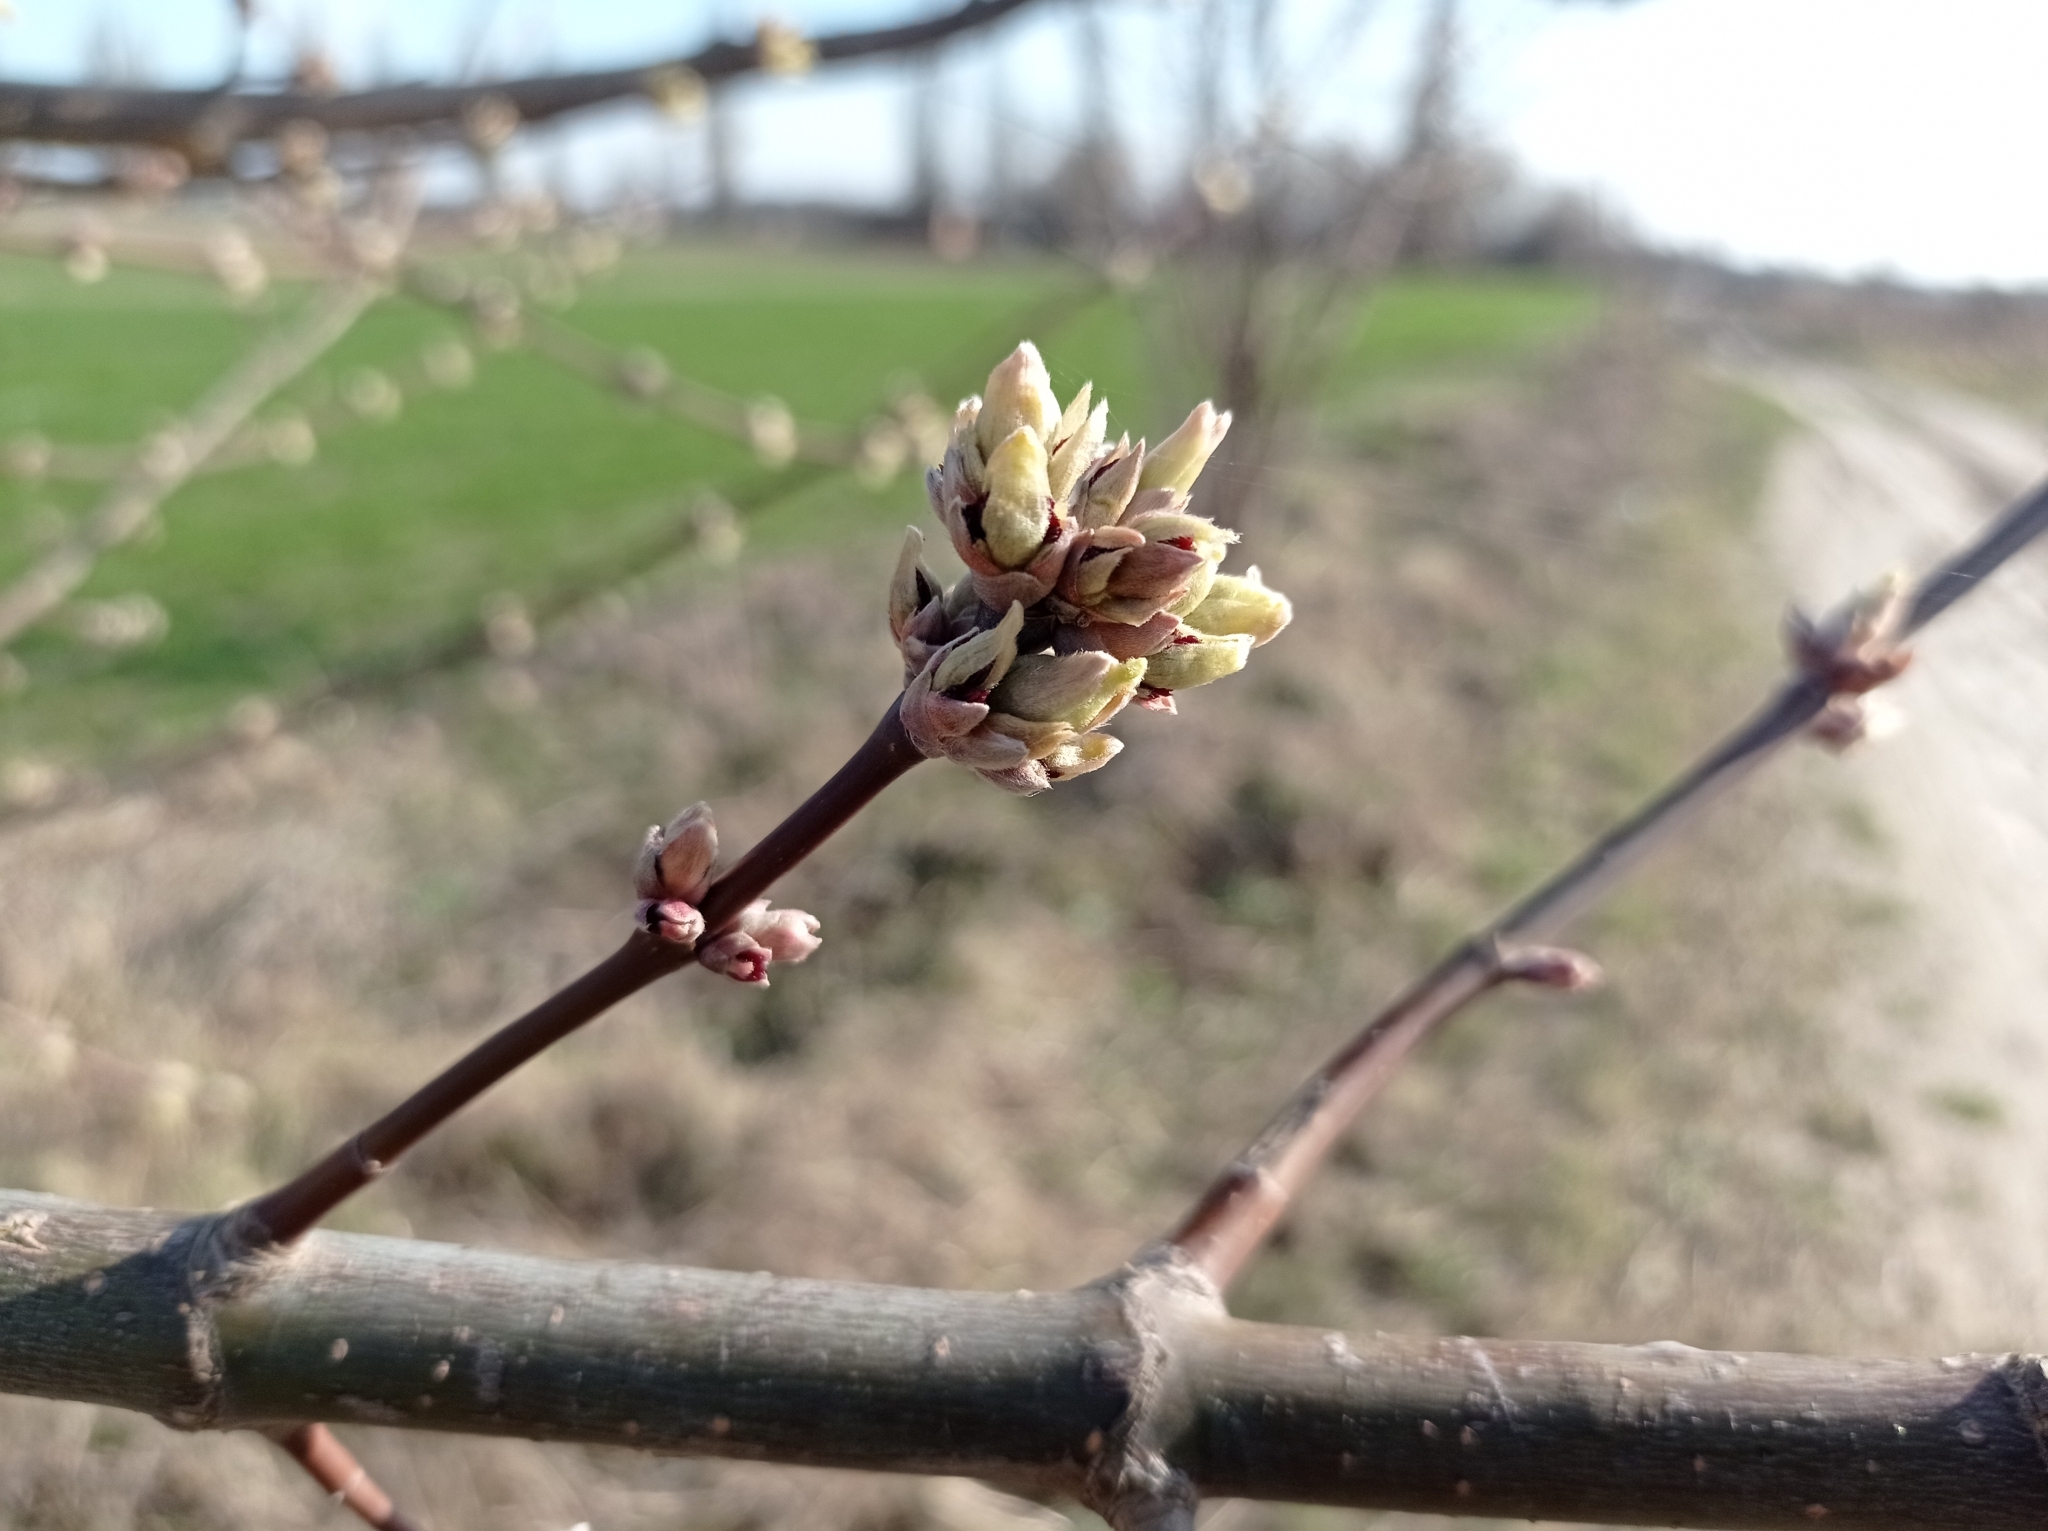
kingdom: Plantae
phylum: Tracheophyta
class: Magnoliopsida
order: Sapindales
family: Sapindaceae
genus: Acer
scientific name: Acer negundo
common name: Ashleaf maple
